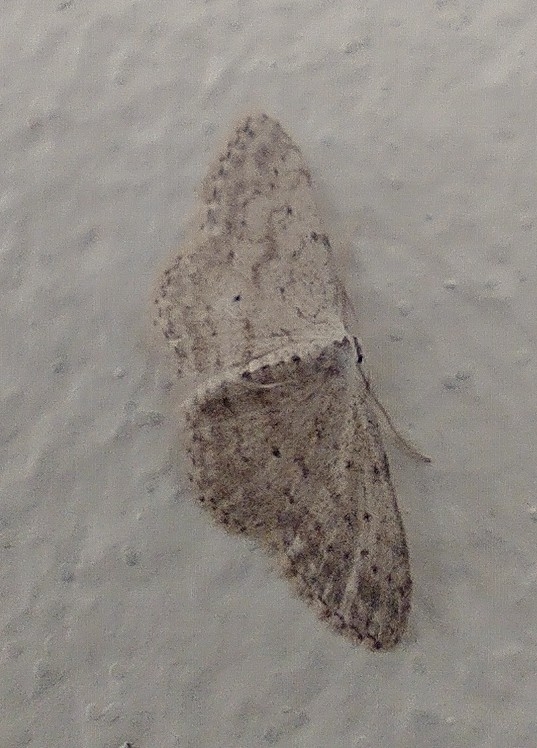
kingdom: Animalia
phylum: Arthropoda
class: Insecta
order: Lepidoptera
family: Geometridae
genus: Idaea
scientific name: Idaea seriata
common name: Small dusty wave
